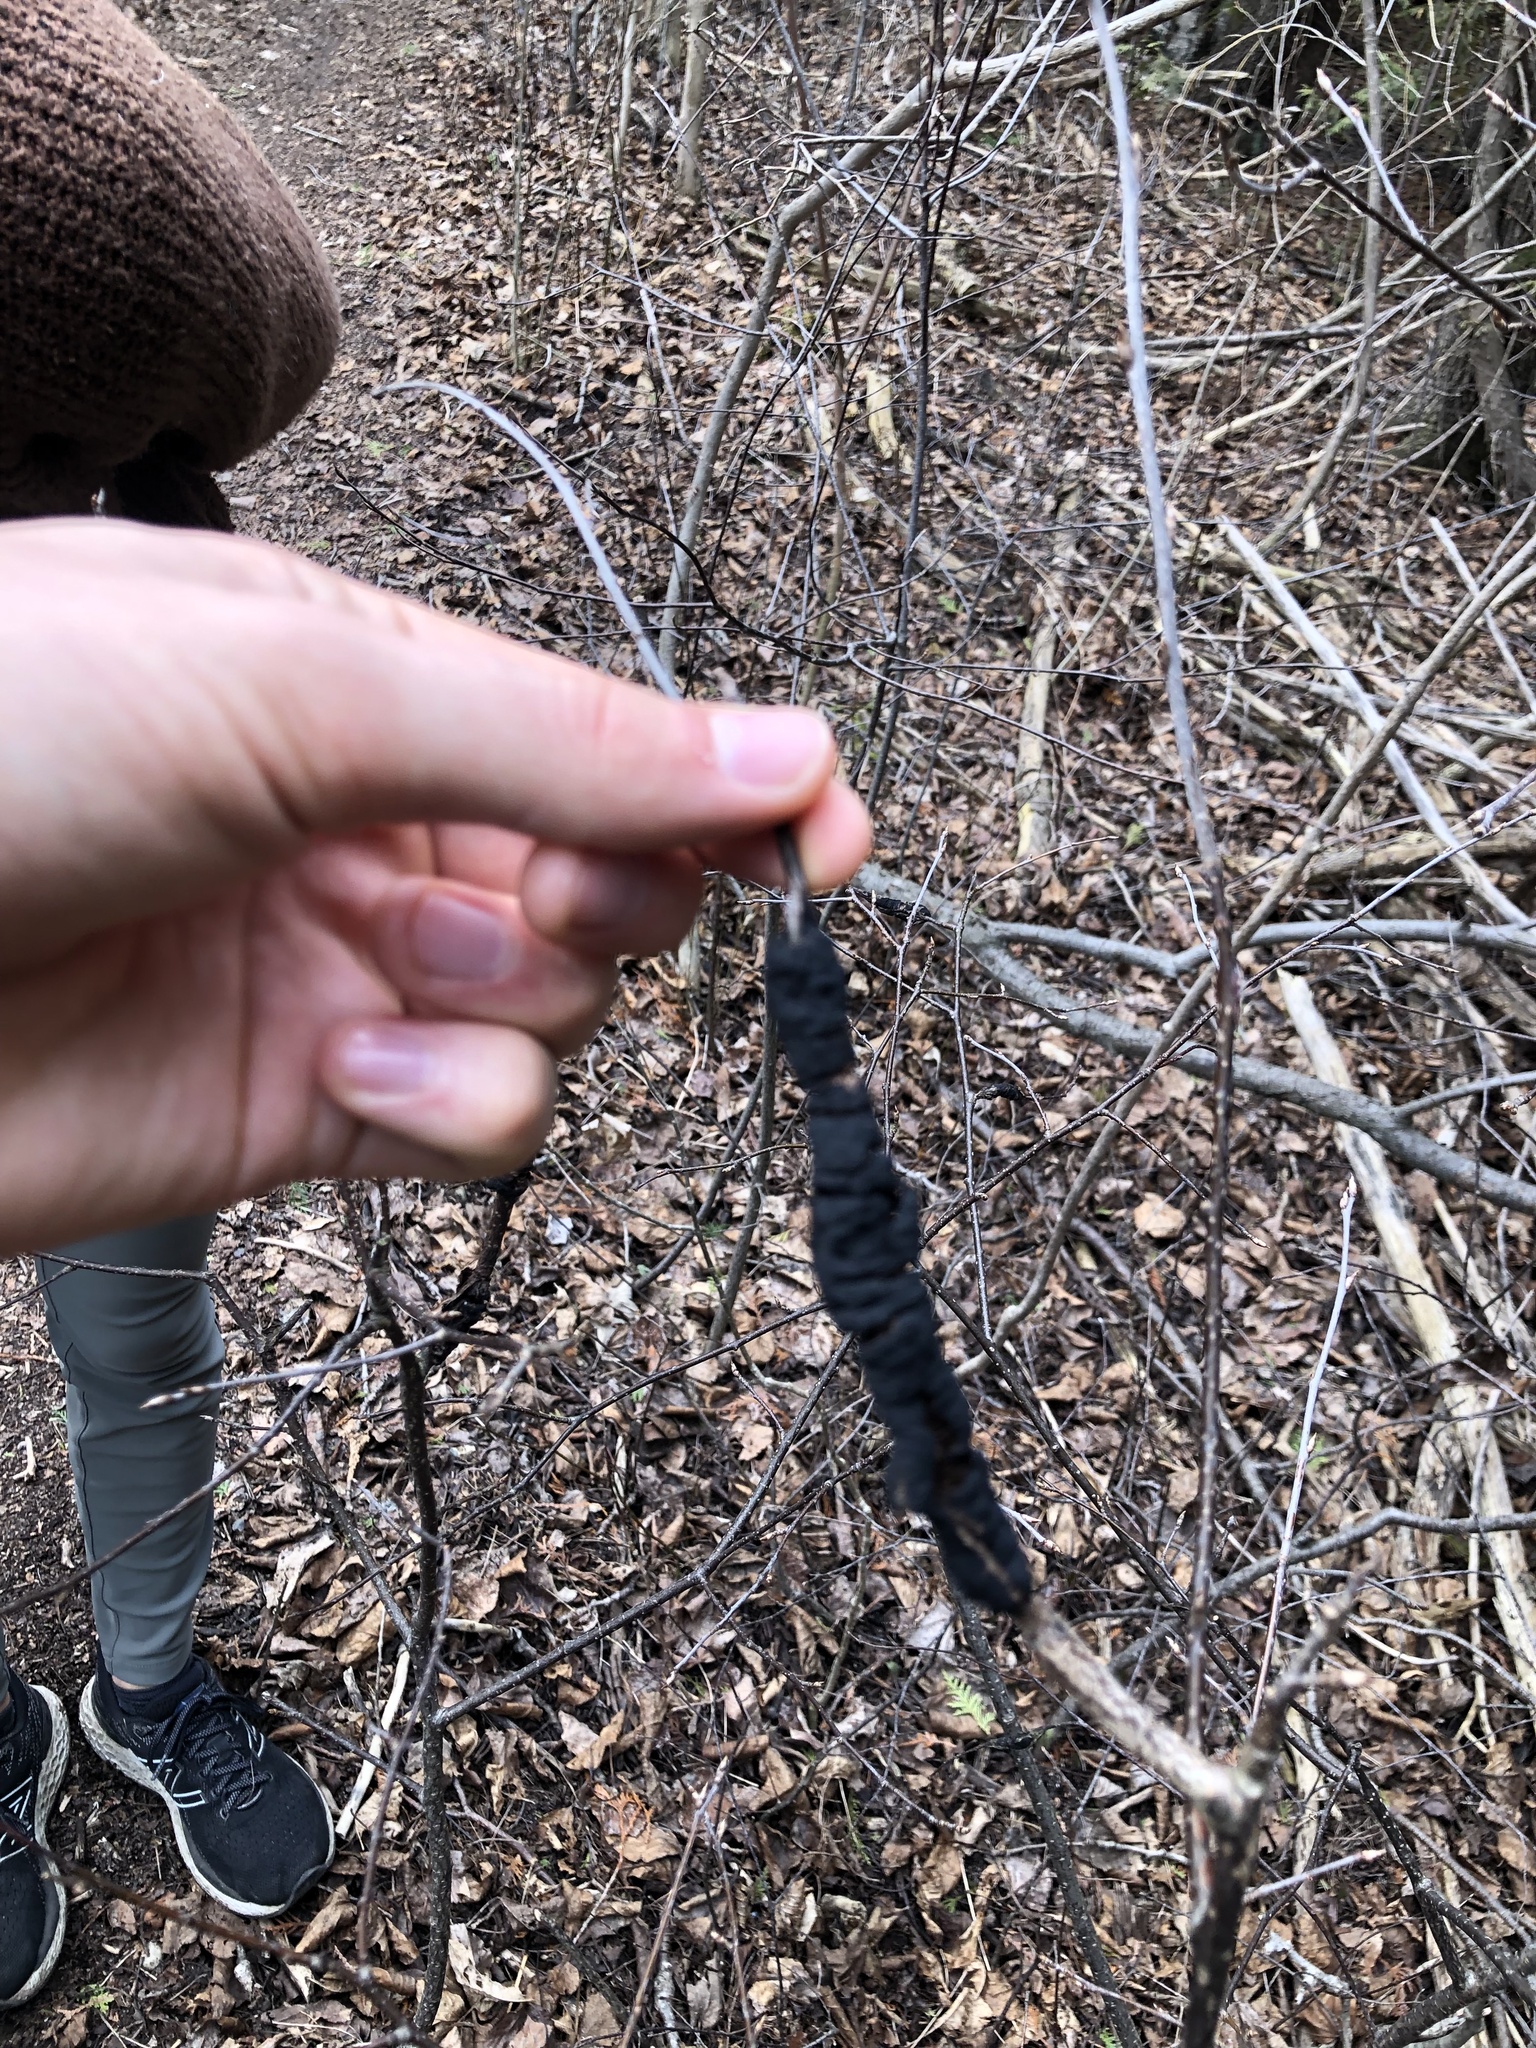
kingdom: Fungi
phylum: Ascomycota
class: Dothideomycetes
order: Venturiales
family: Venturiaceae
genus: Apiosporina
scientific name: Apiosporina morbosa
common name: Black knot
